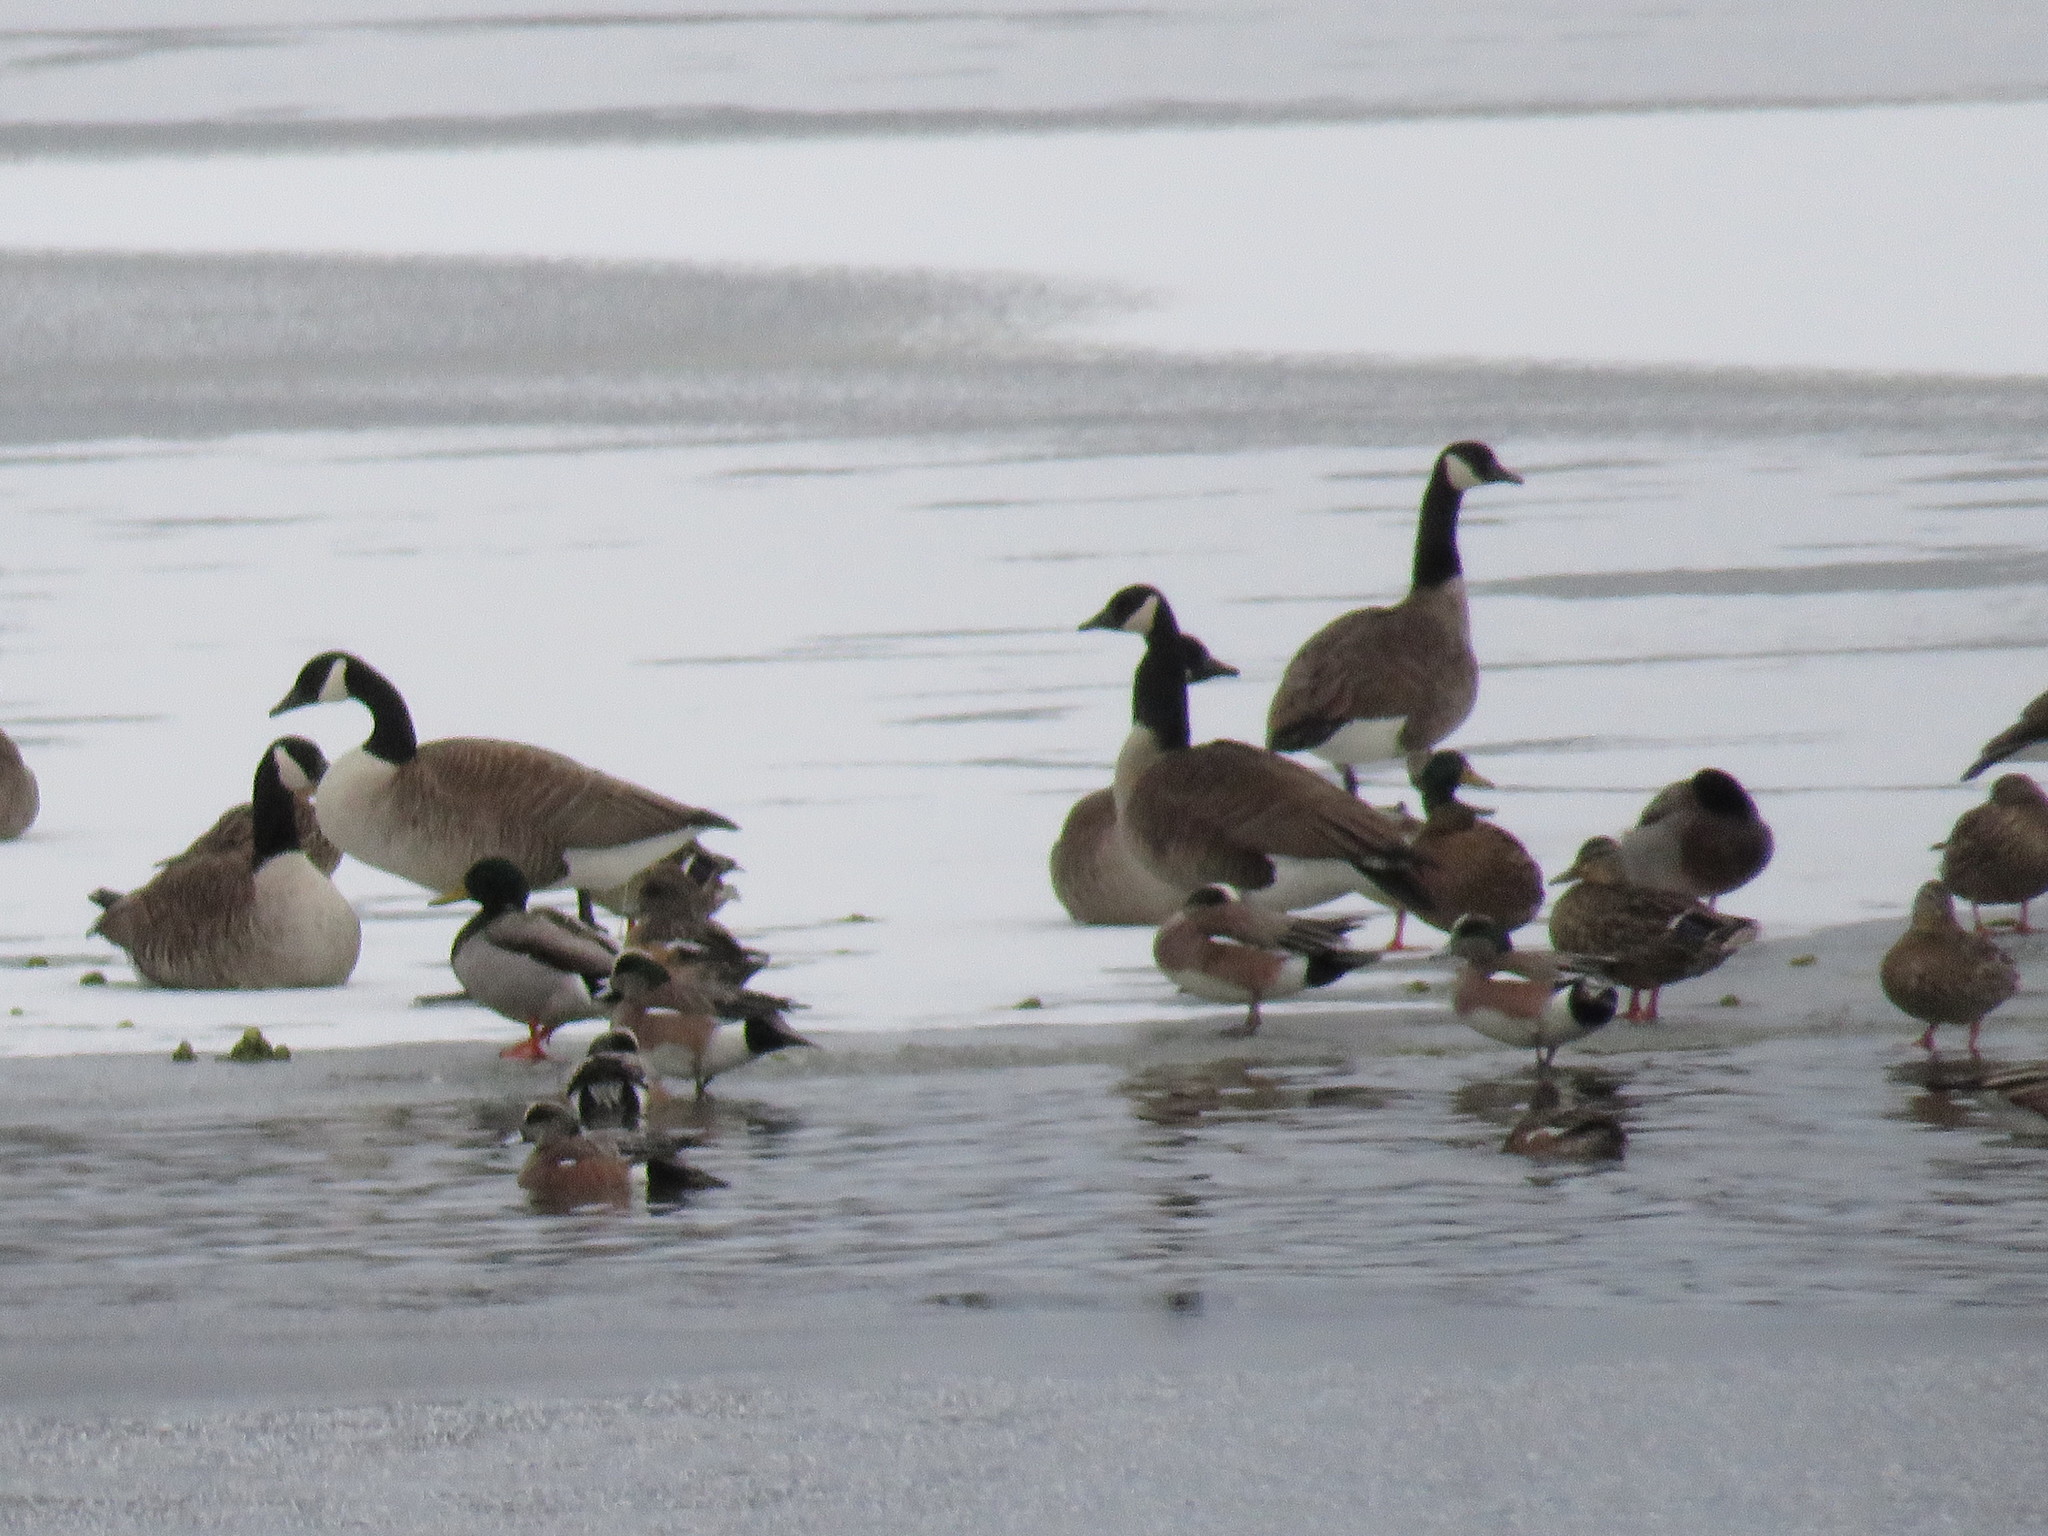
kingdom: Animalia
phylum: Chordata
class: Aves
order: Anseriformes
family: Anatidae
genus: Branta
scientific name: Branta canadensis
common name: Canada goose
